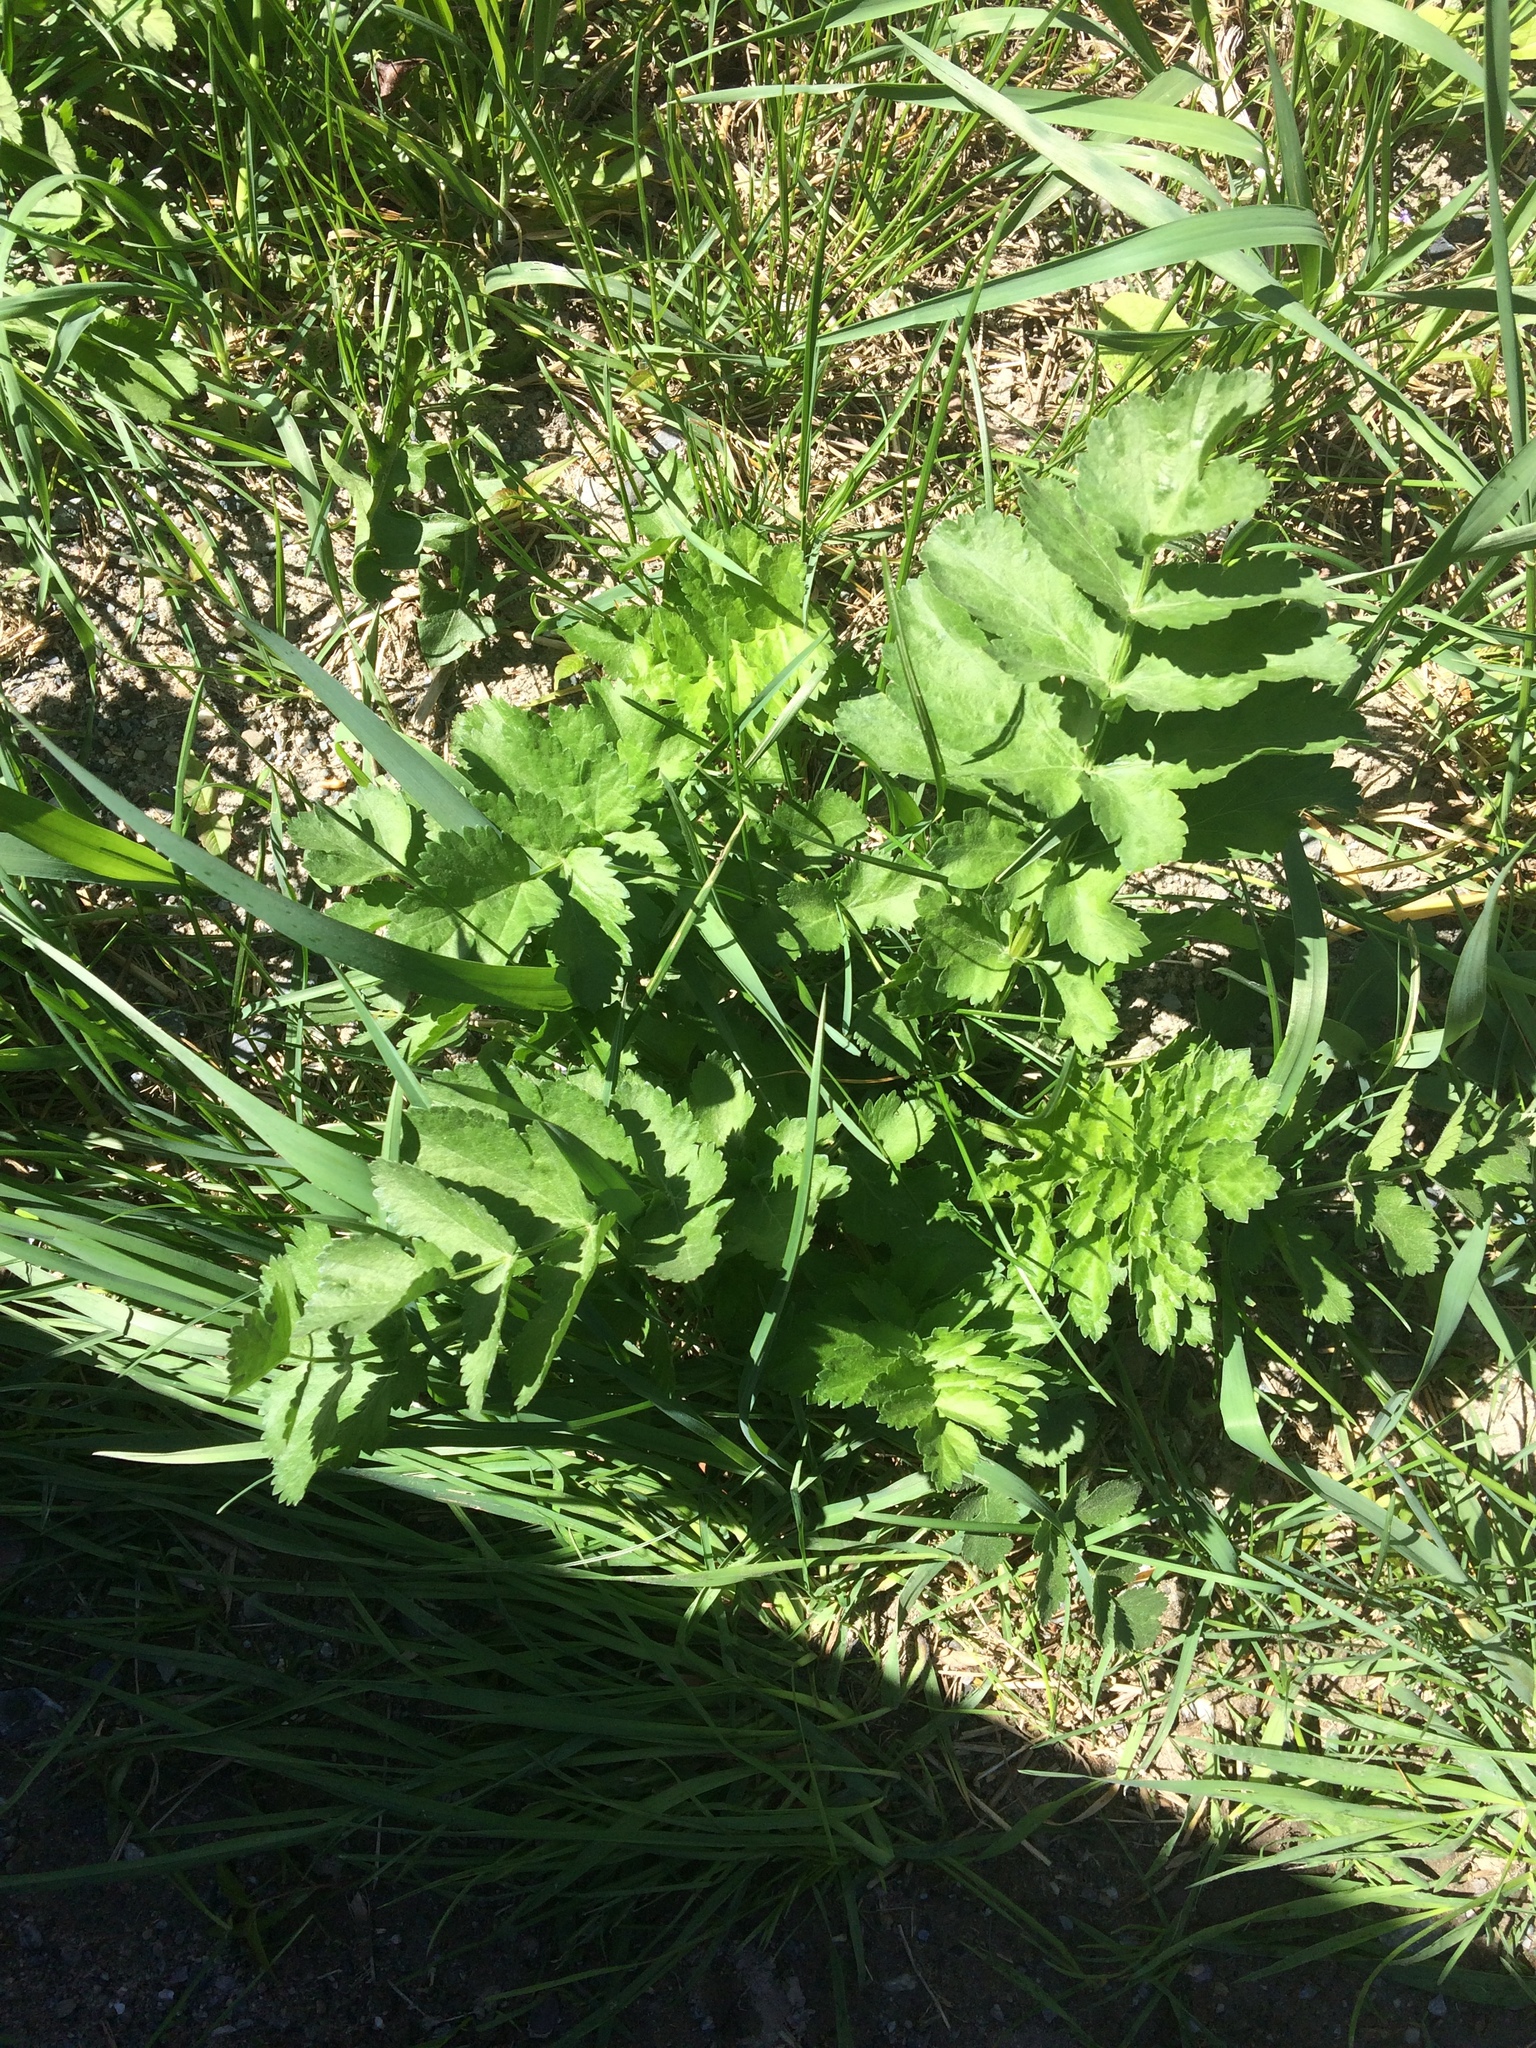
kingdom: Plantae
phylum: Tracheophyta
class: Magnoliopsida
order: Apiales
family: Apiaceae
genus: Pastinaca
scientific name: Pastinaca sativa
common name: Wild parsnip
